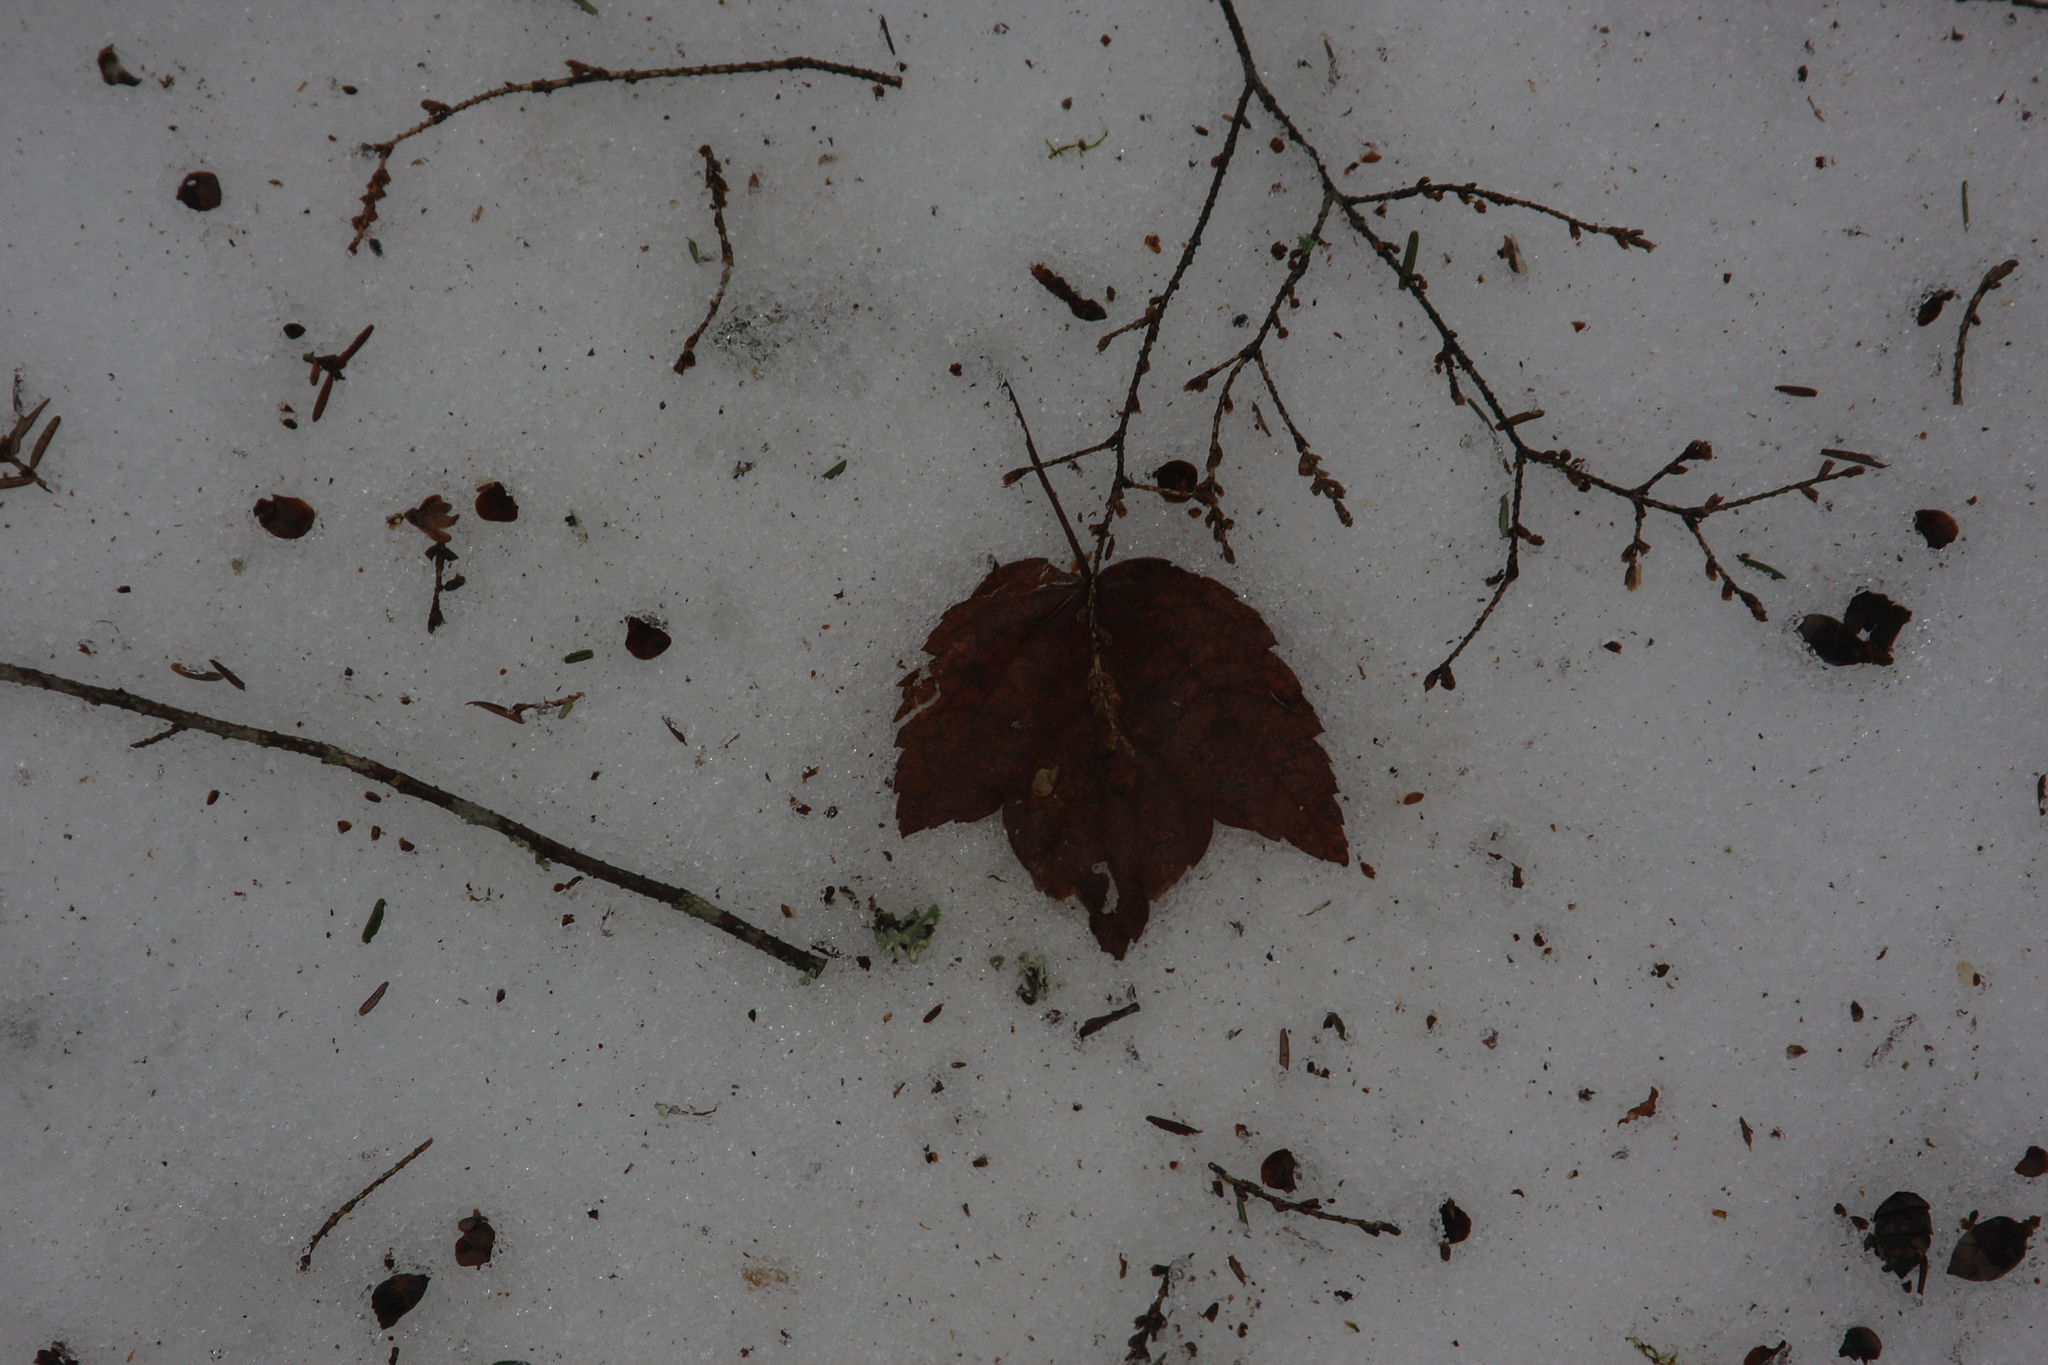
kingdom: Plantae
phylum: Tracheophyta
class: Magnoliopsida
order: Sapindales
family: Sapindaceae
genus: Acer
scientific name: Acer rubrum
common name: Red maple
